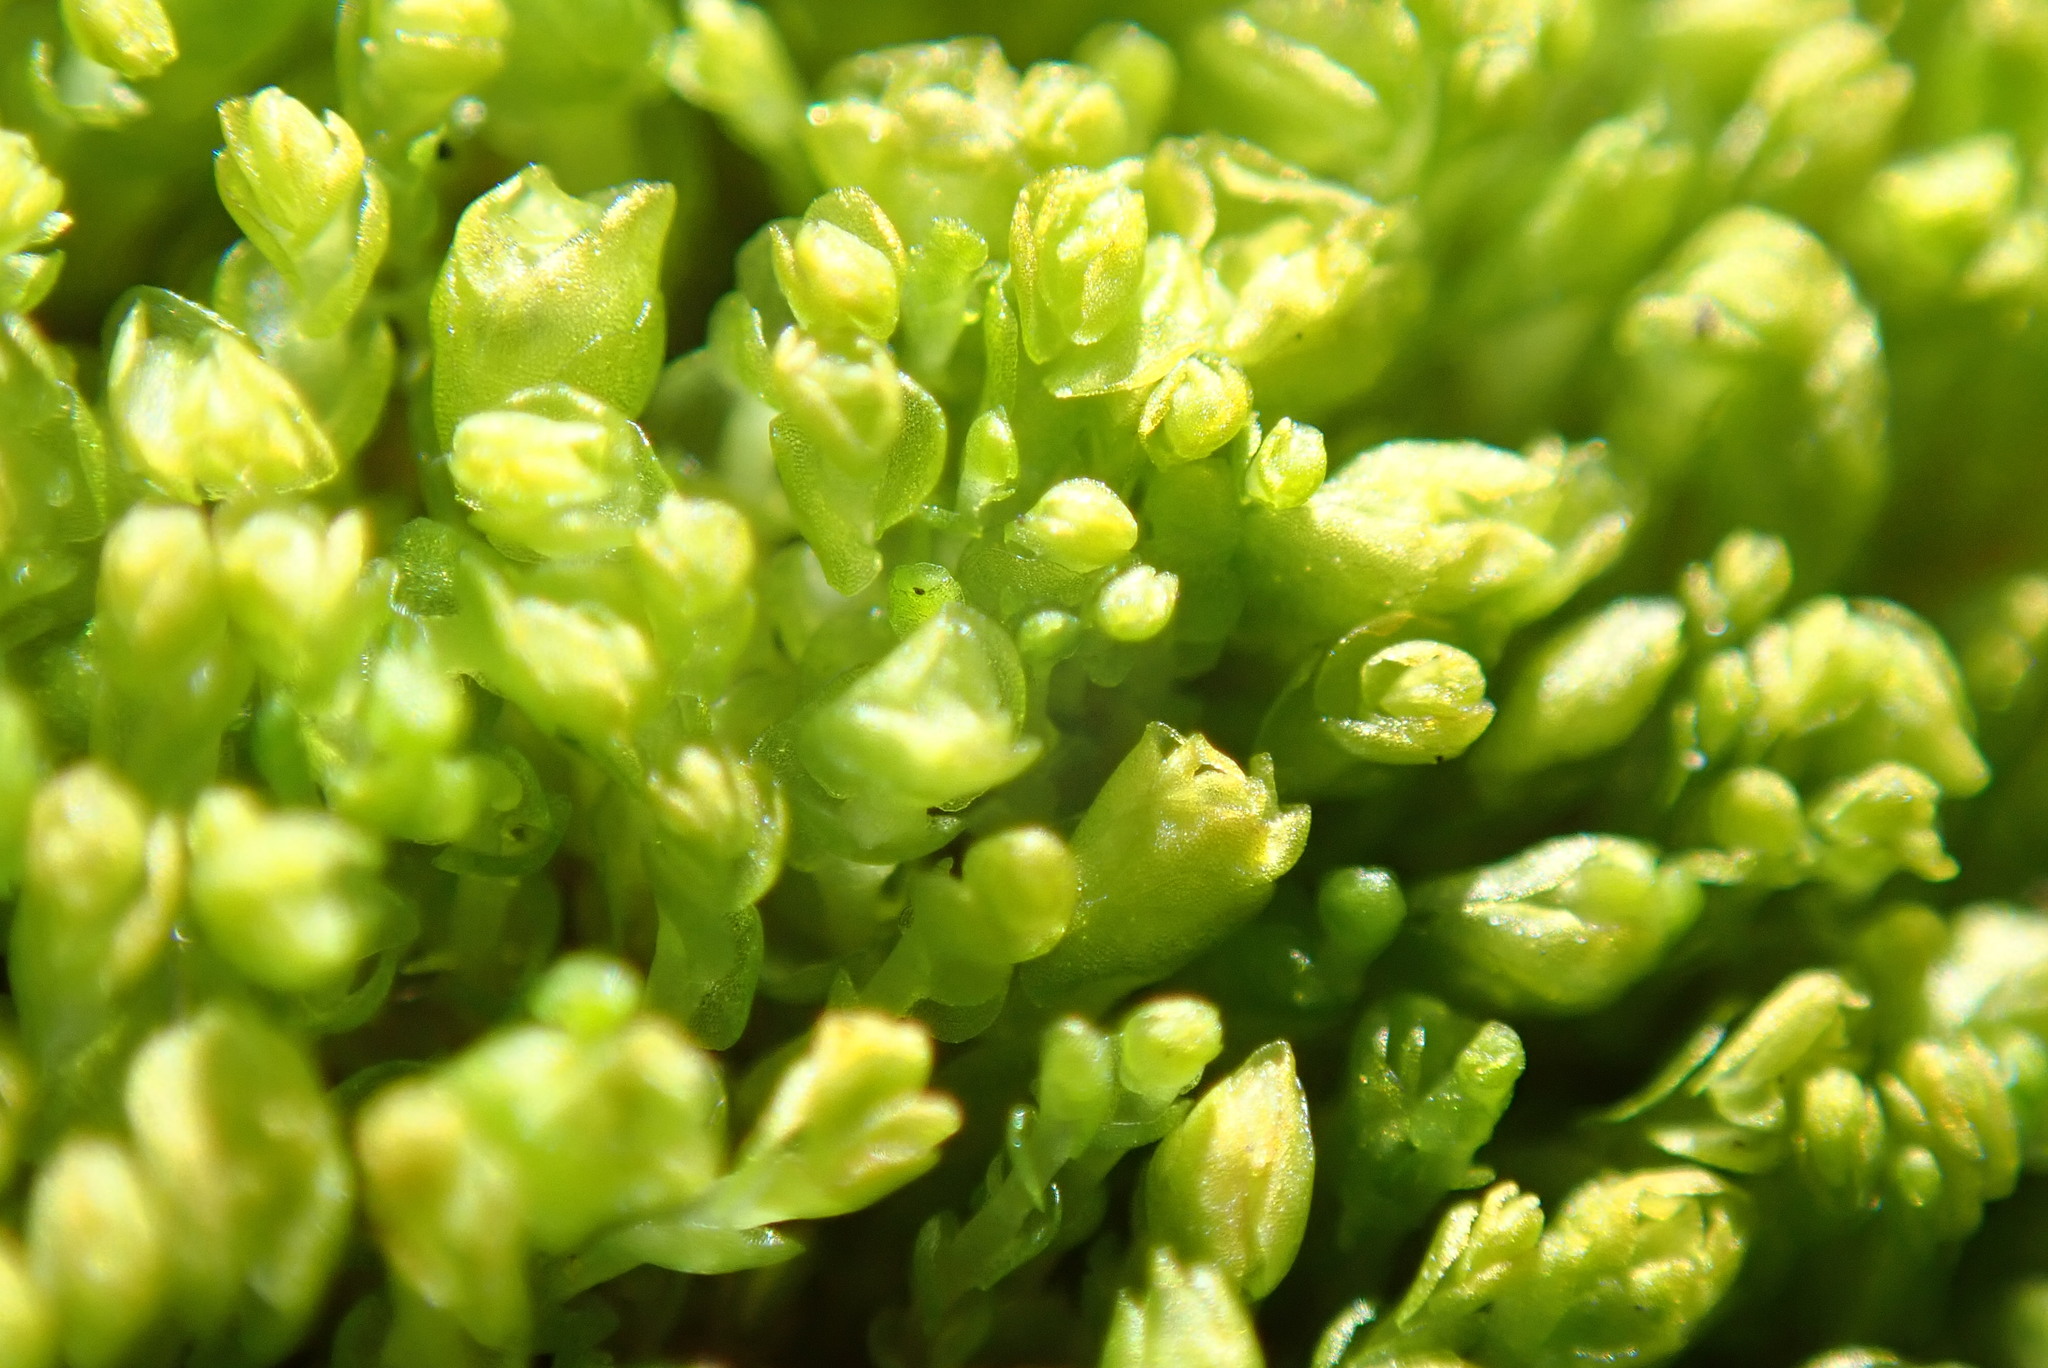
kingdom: Plantae
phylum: Marchantiophyta
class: Jungermanniopsida
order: Jungermanniales
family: Gymnomitriaceae
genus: Nardia
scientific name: Nardia geoscyphus
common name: Earth-cup flapwort
